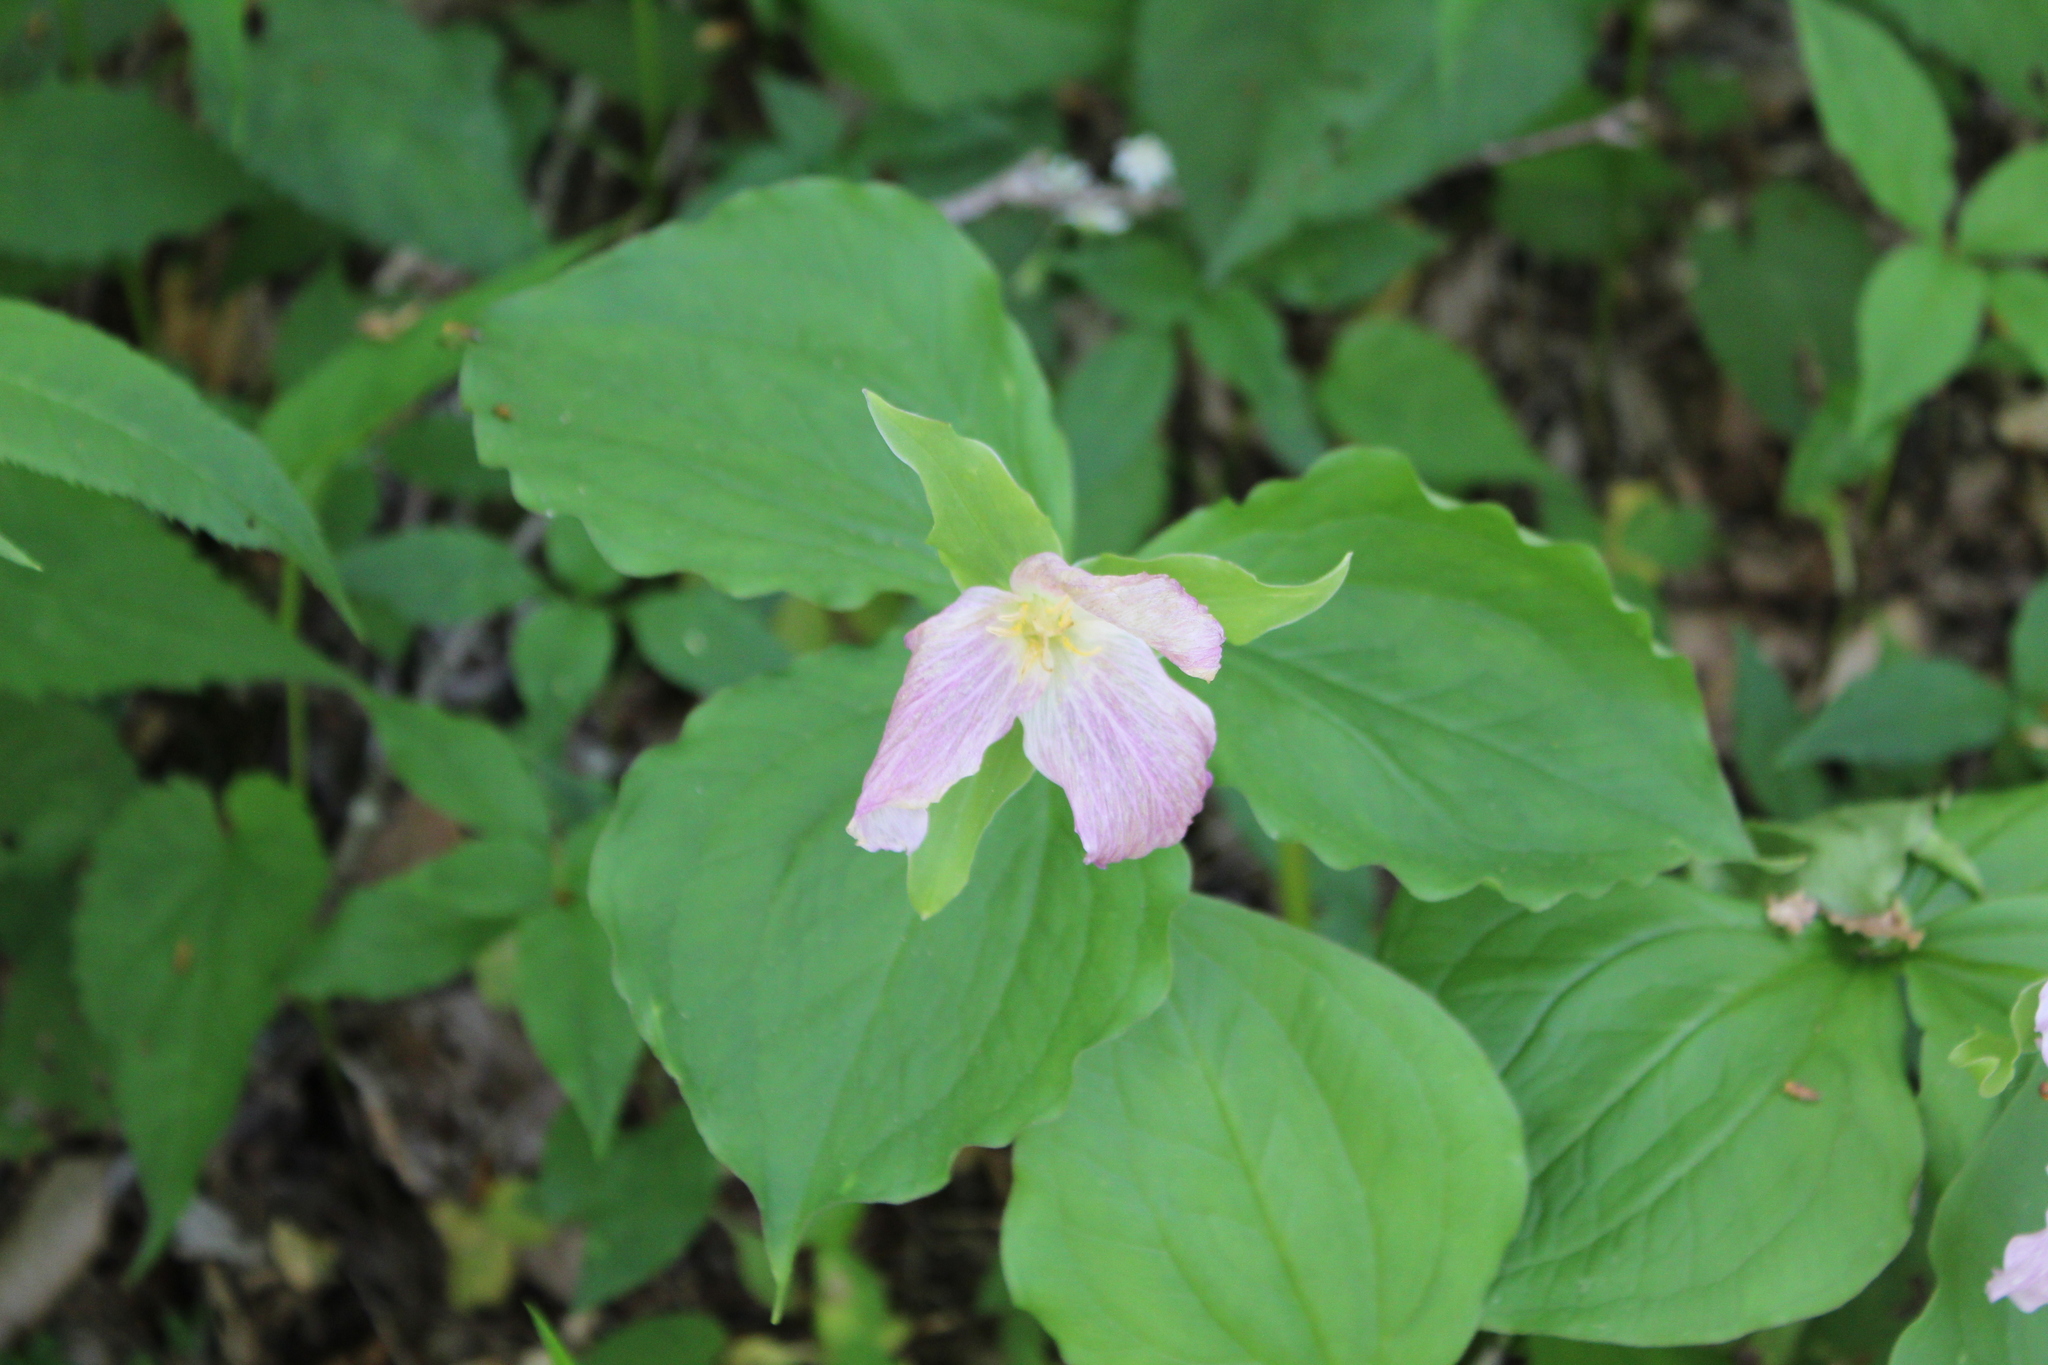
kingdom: Plantae
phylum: Tracheophyta
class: Liliopsida
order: Liliales
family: Melanthiaceae
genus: Trillium
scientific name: Trillium grandiflorum
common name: Great white trillium
